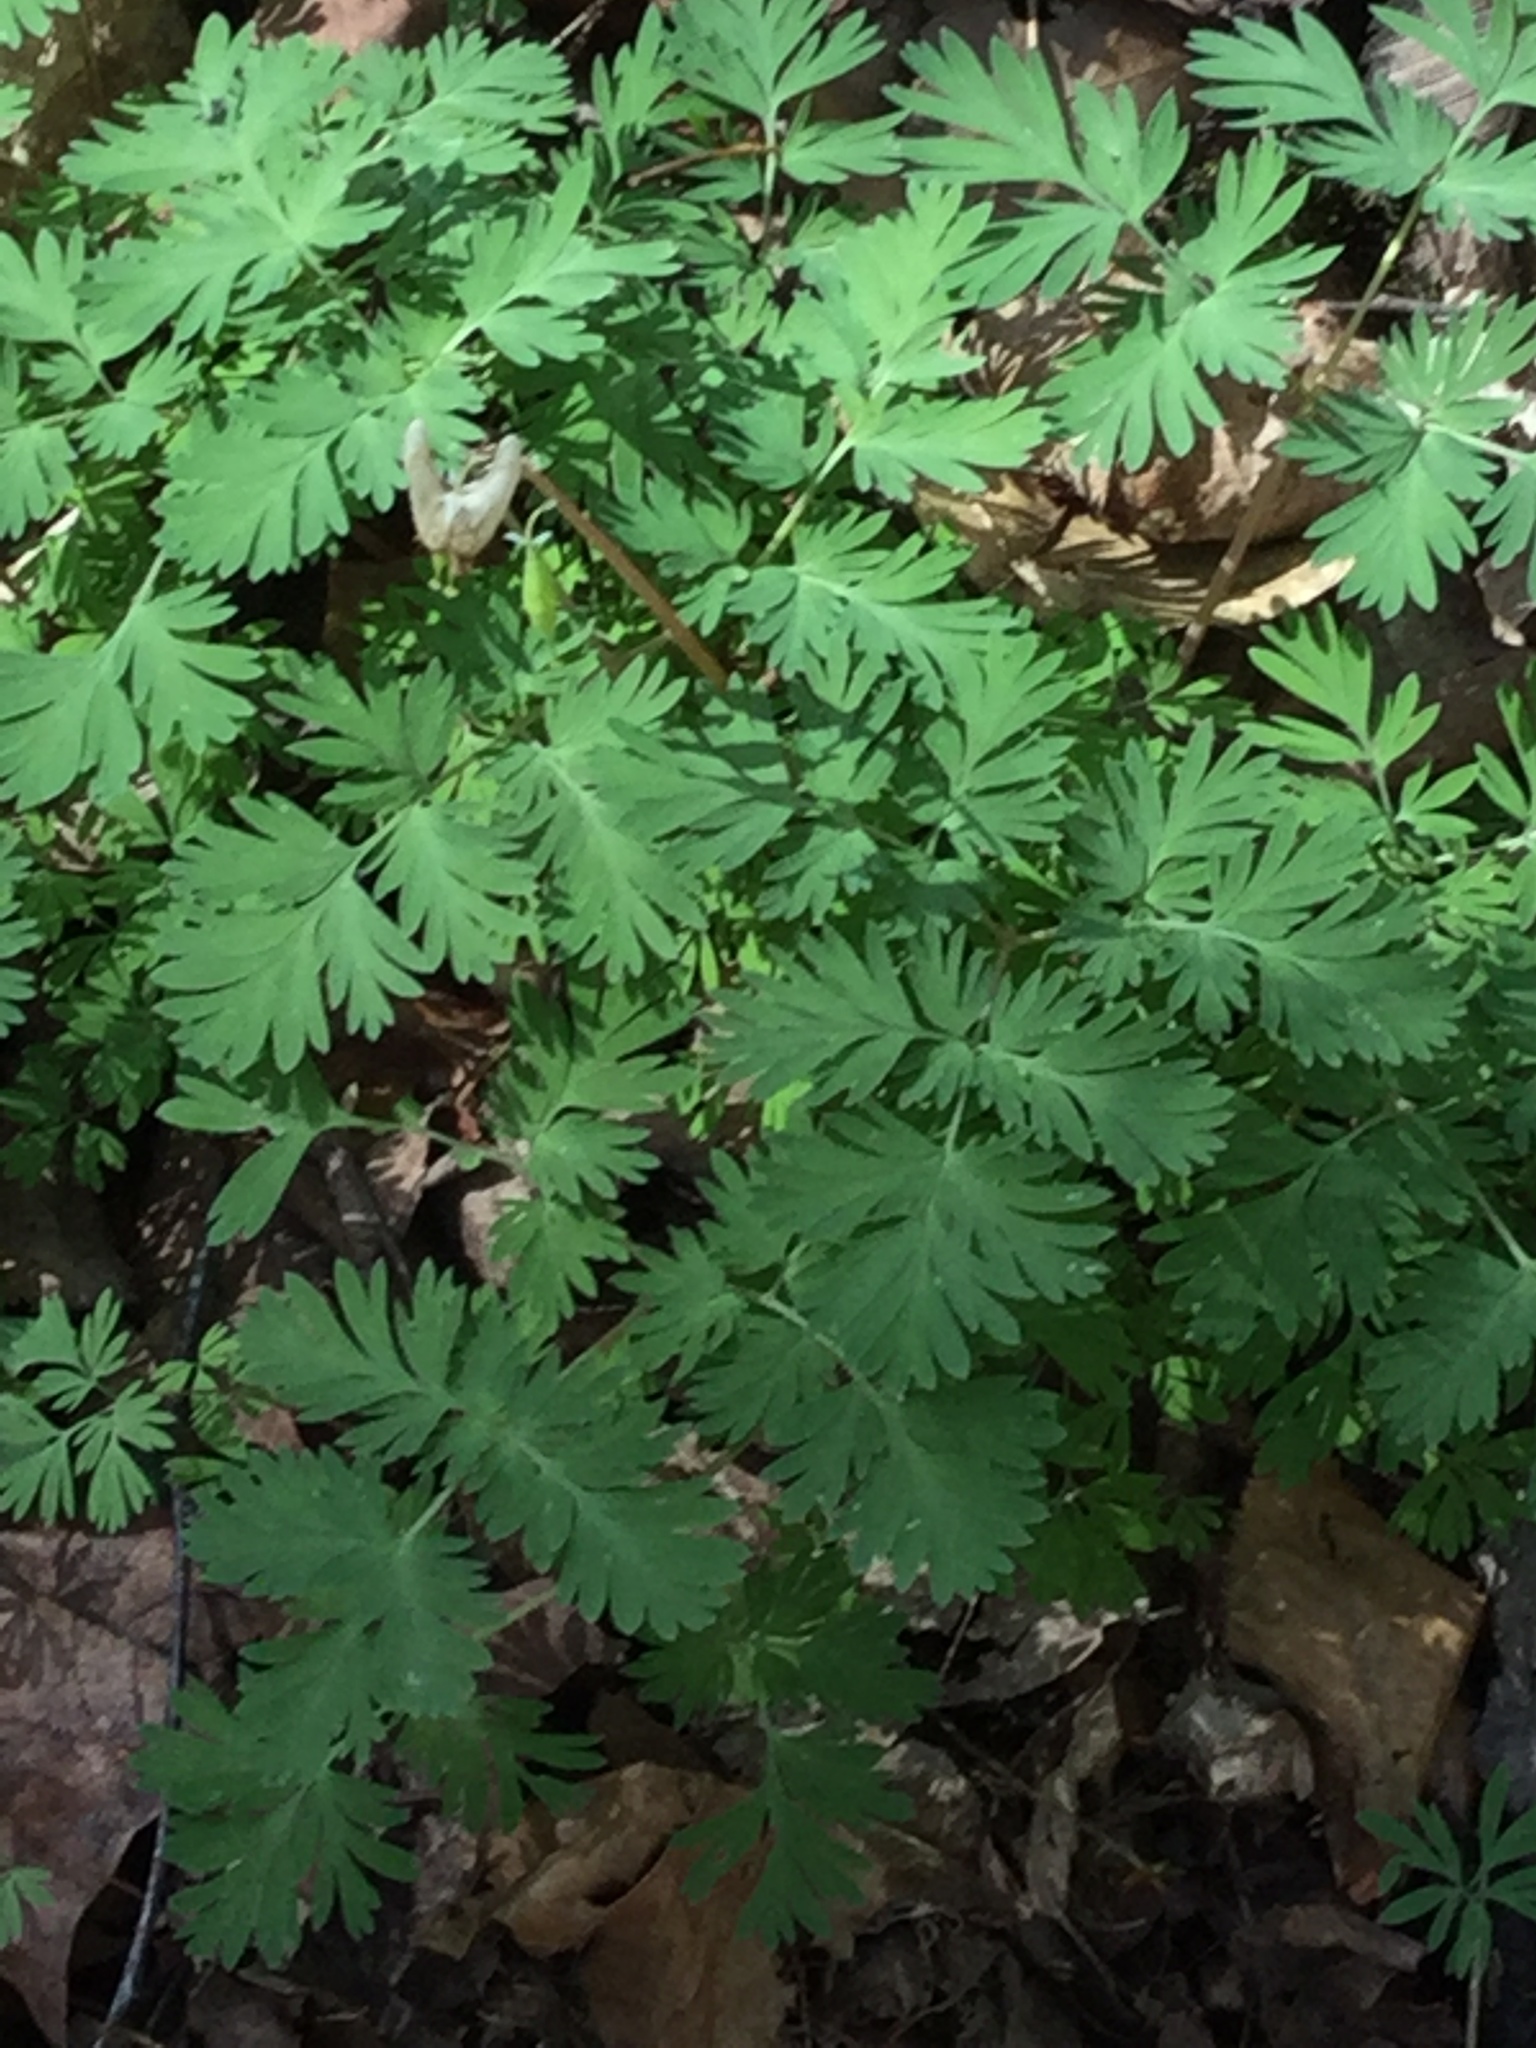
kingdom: Plantae
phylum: Tracheophyta
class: Magnoliopsida
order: Ranunculales
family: Papaveraceae
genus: Dicentra
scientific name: Dicentra cucullaria
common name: Dutchman's breeches
